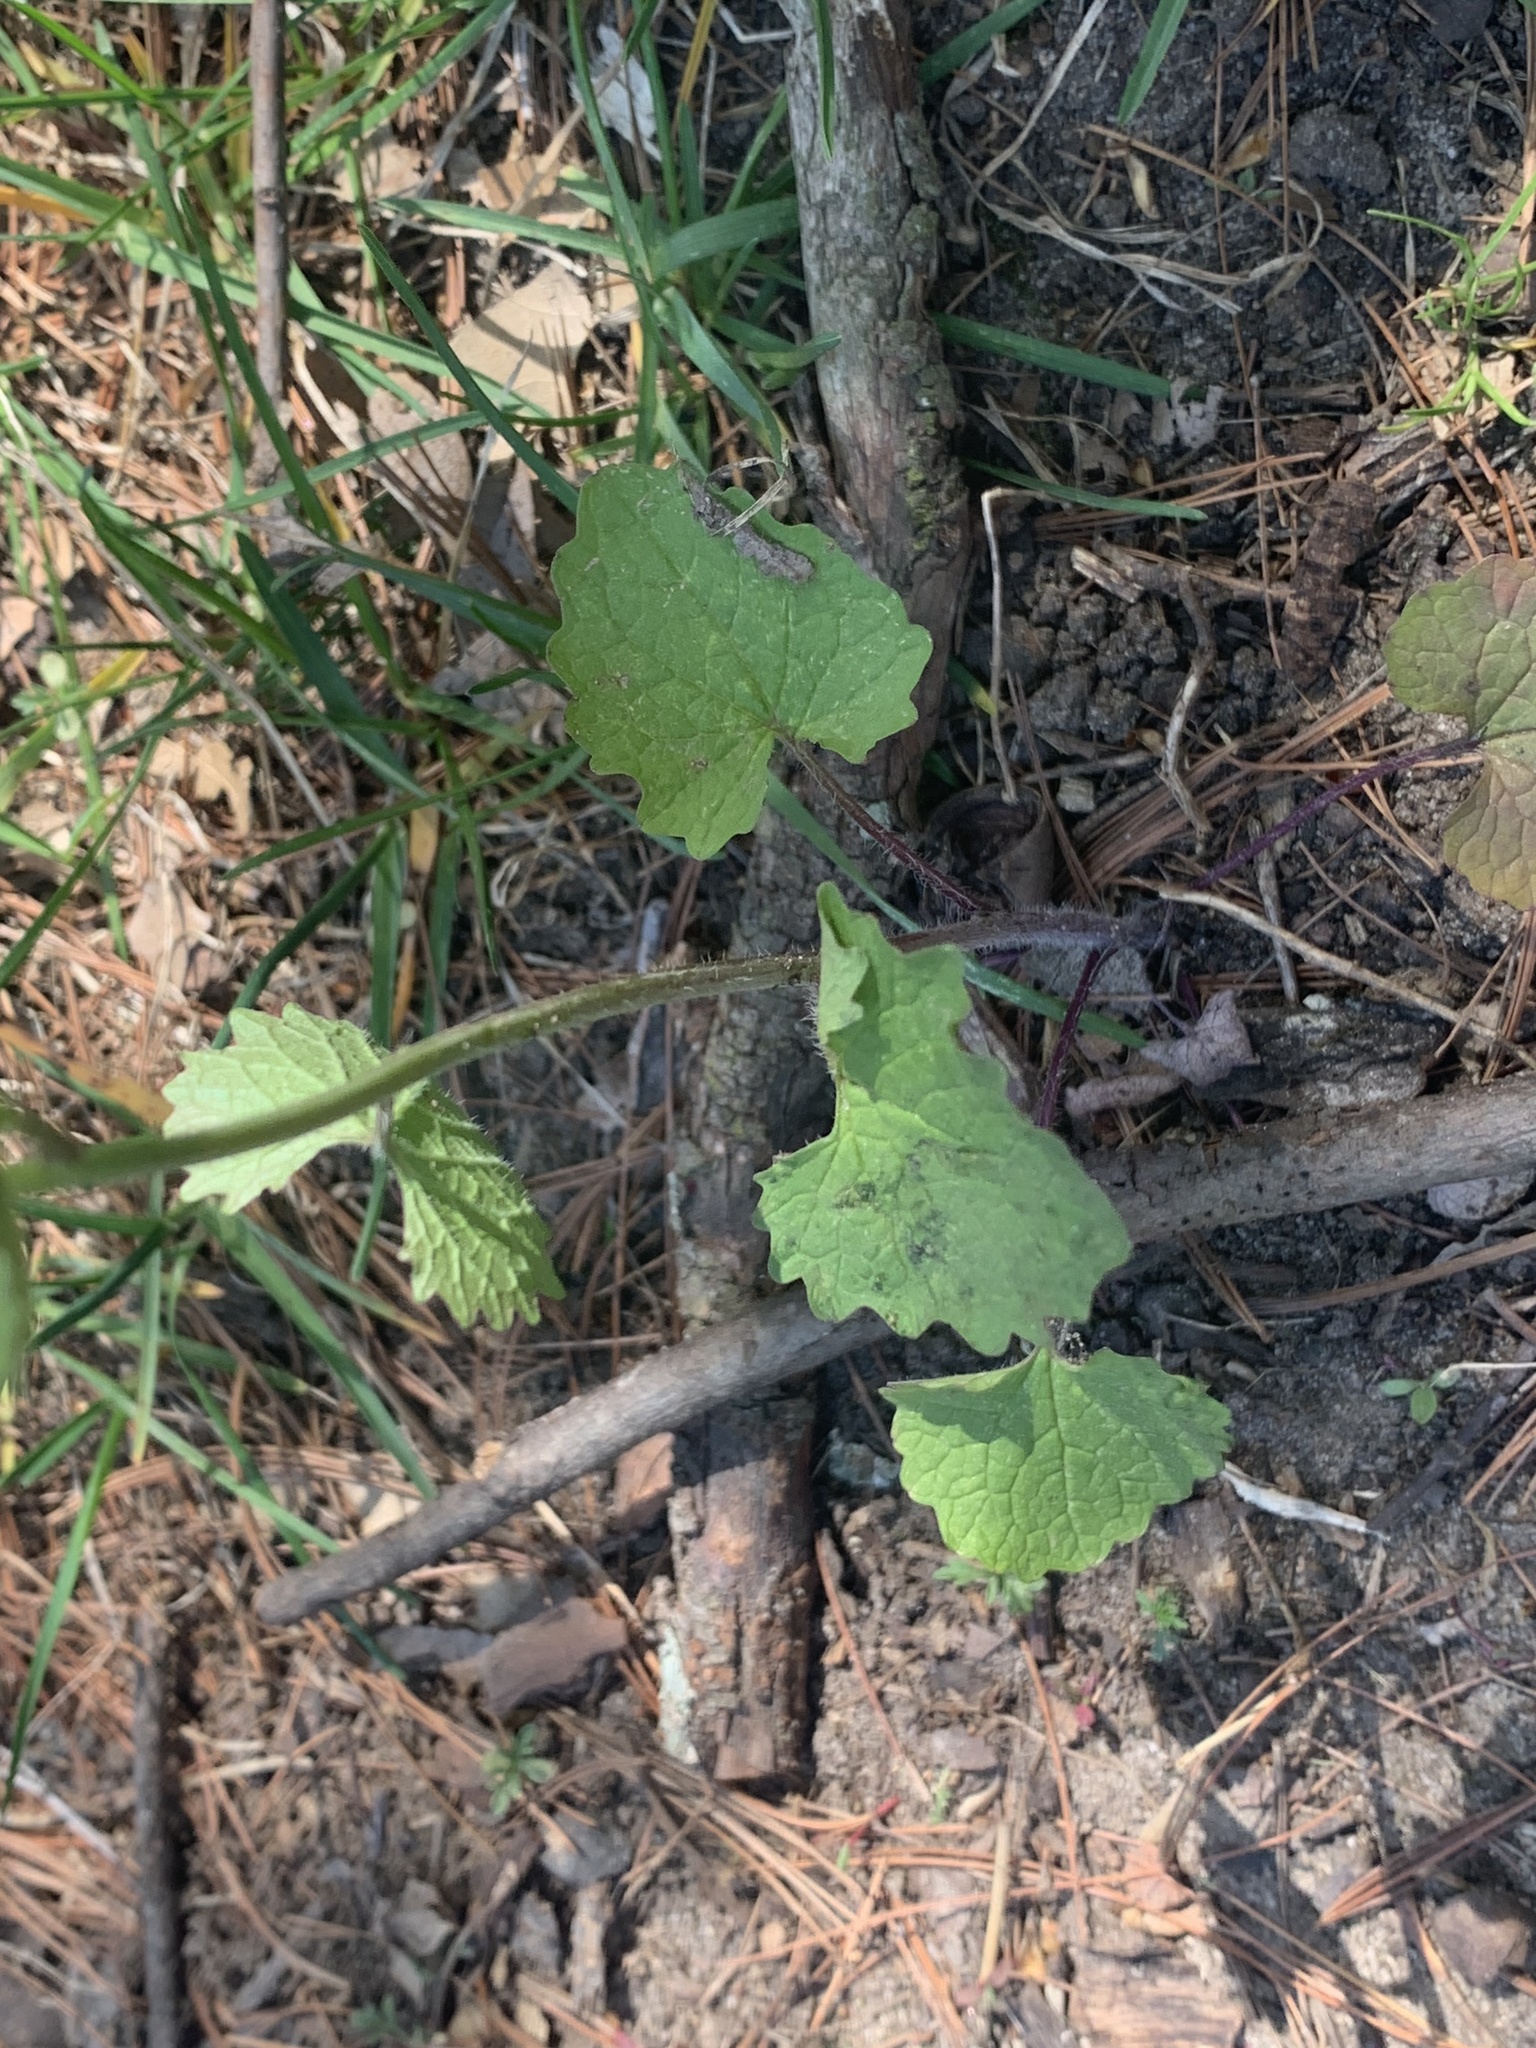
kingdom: Plantae
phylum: Tracheophyta
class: Magnoliopsida
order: Brassicales
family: Brassicaceae
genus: Alliaria
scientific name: Alliaria petiolata
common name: Garlic mustard
